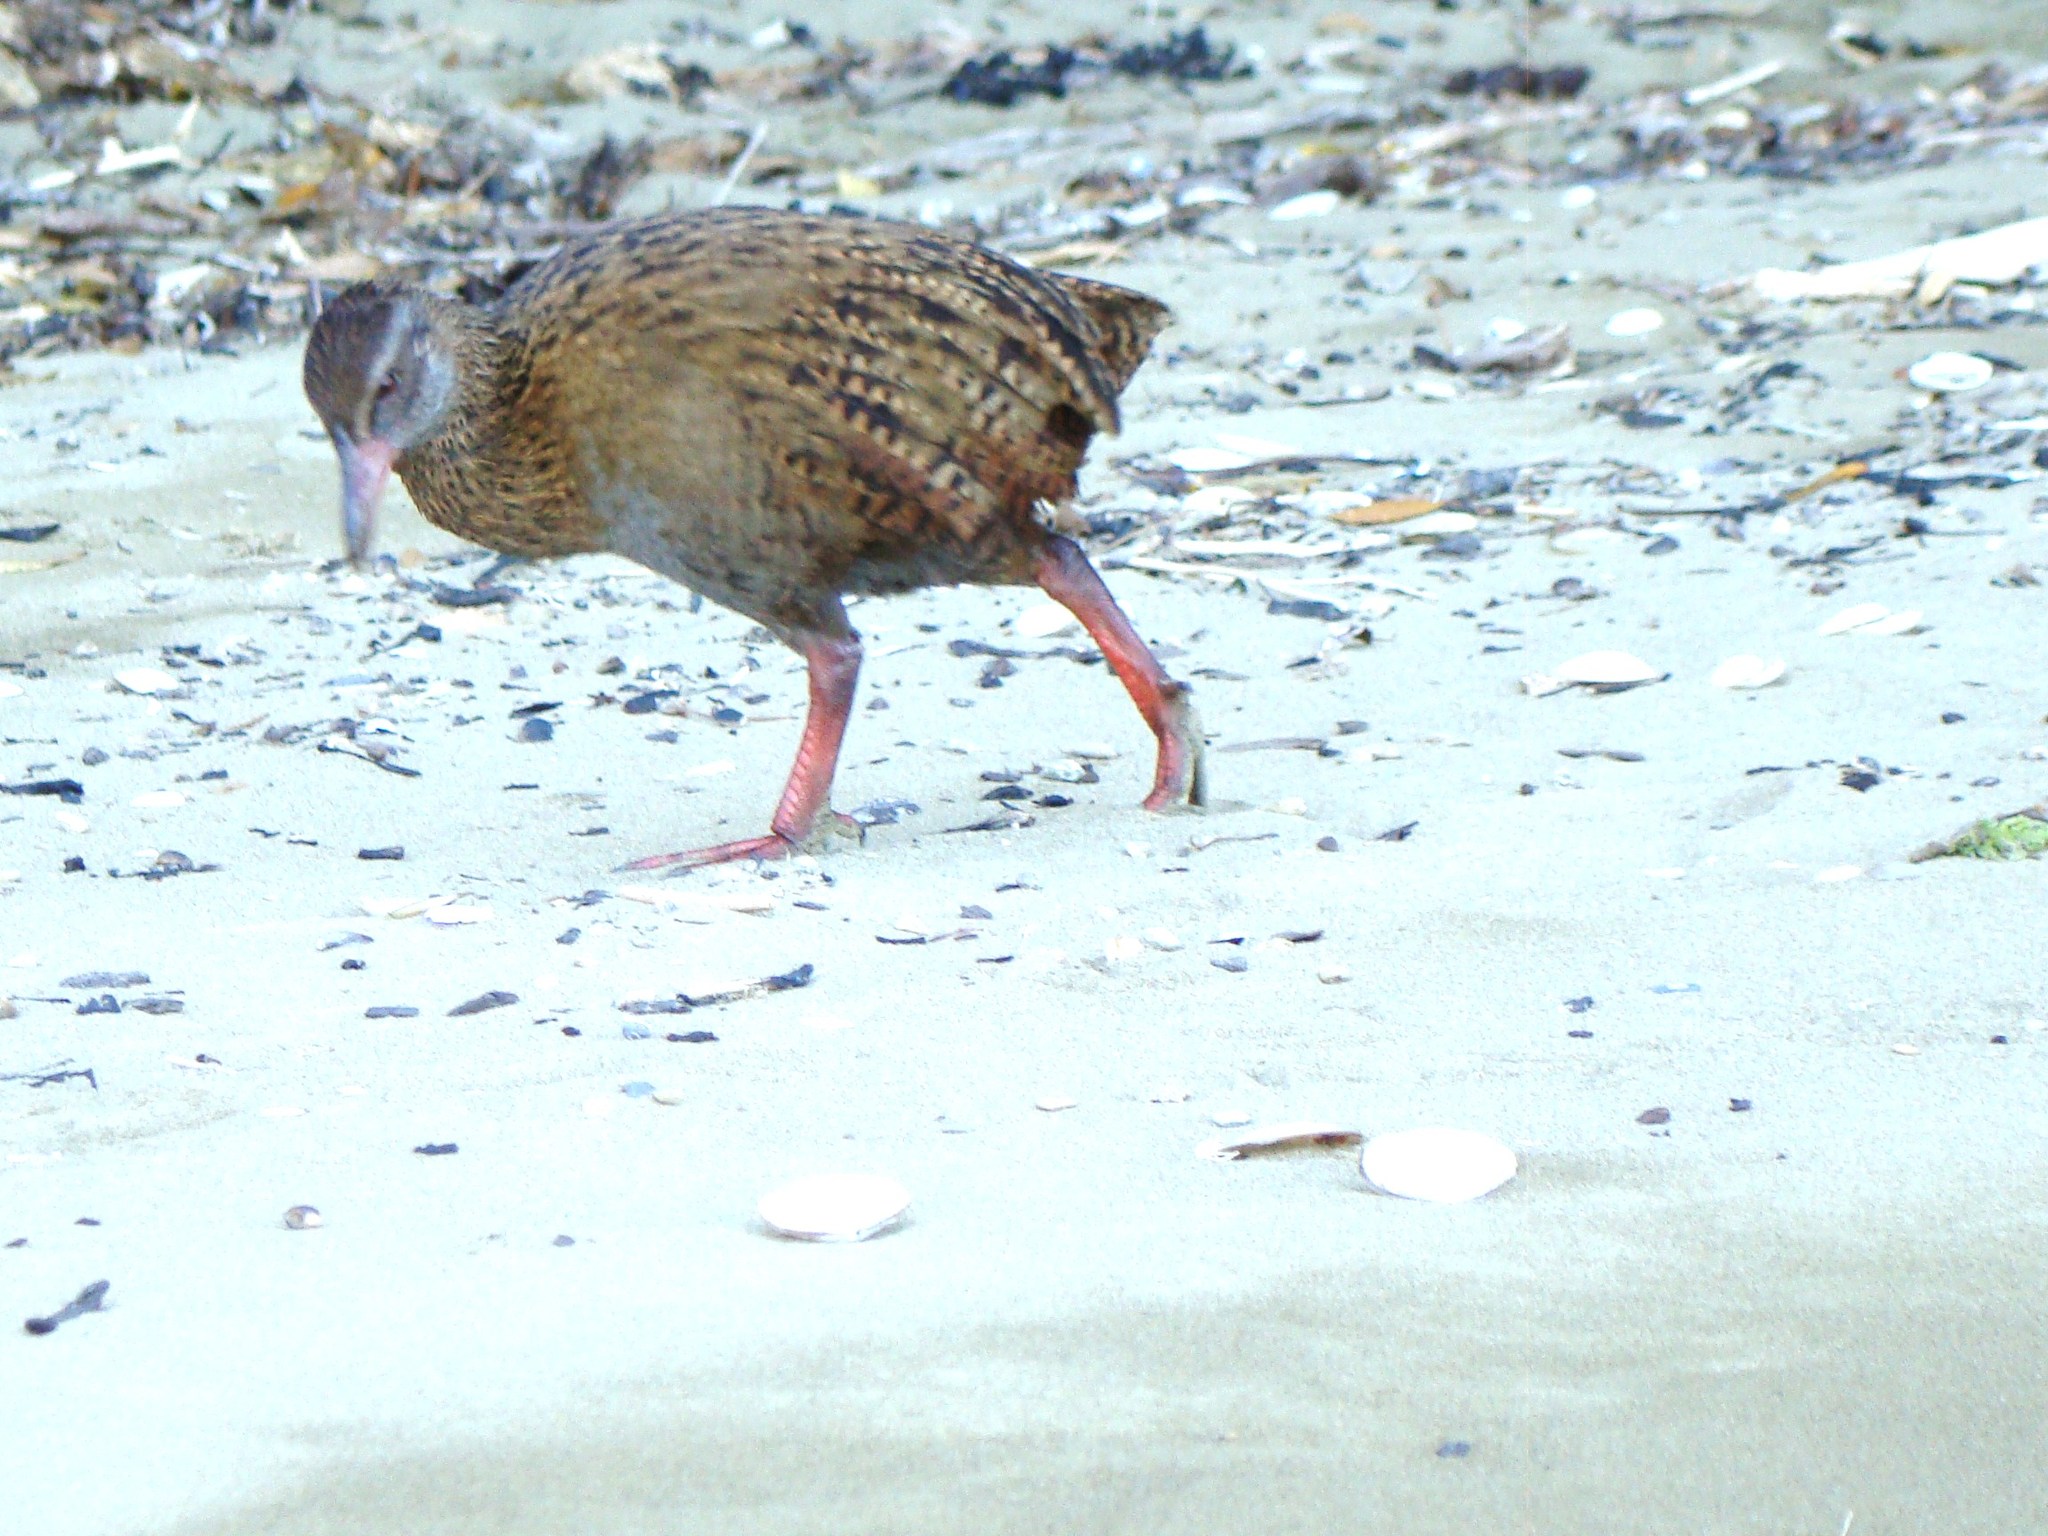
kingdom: Animalia
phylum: Chordata
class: Aves
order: Gruiformes
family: Rallidae
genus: Gallirallus
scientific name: Gallirallus australis
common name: Weka
